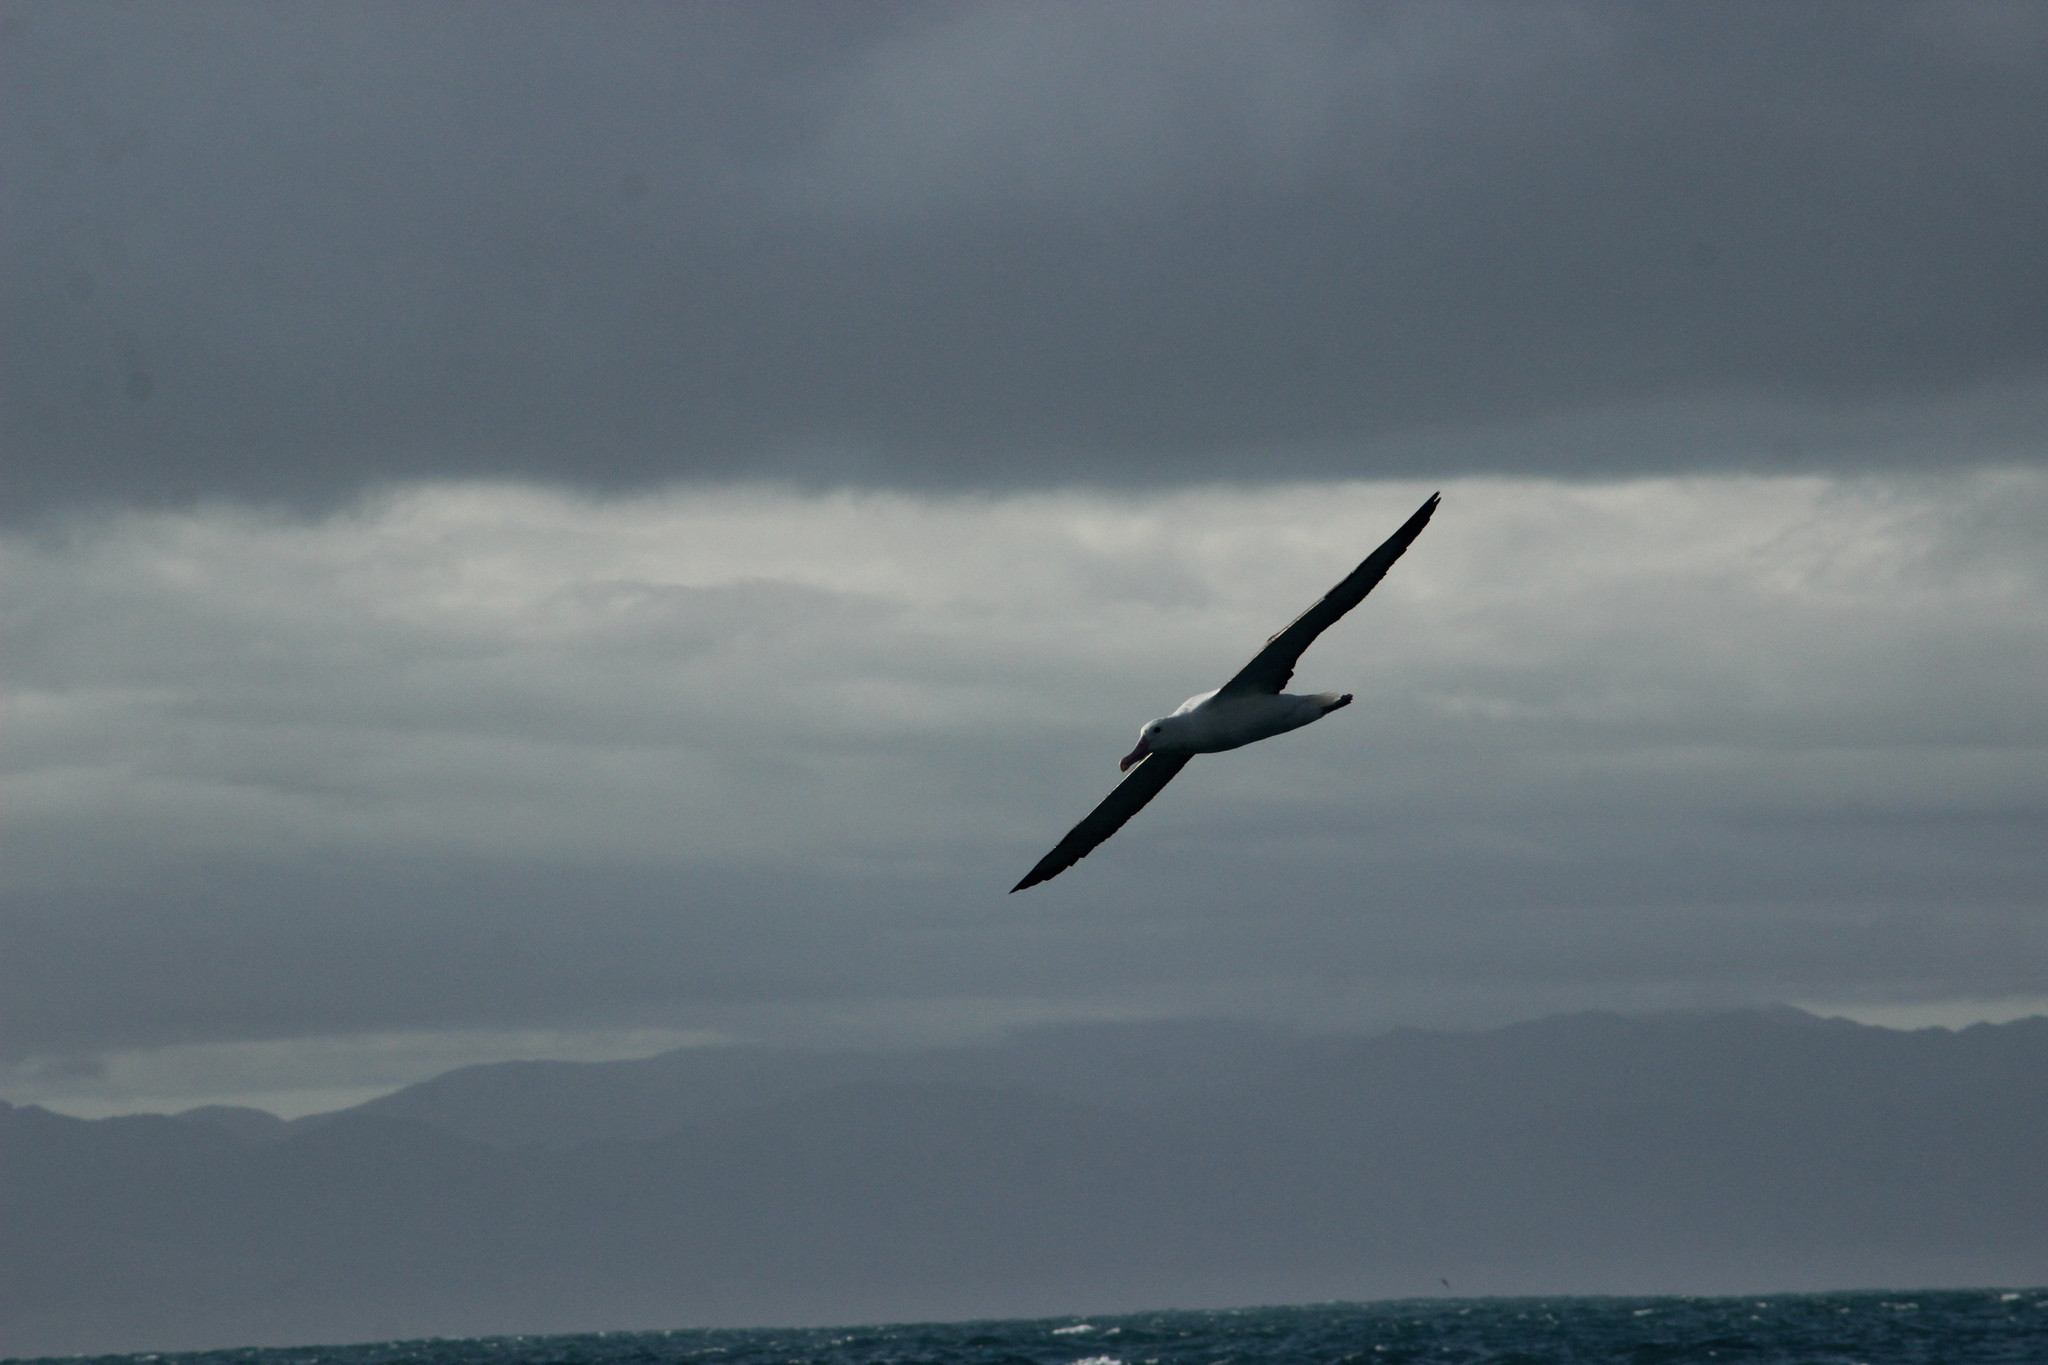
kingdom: Animalia
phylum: Chordata
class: Aves
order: Procellariiformes
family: Diomedeidae
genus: Diomedea
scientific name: Diomedea sanfordi
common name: Northern royal albatross
